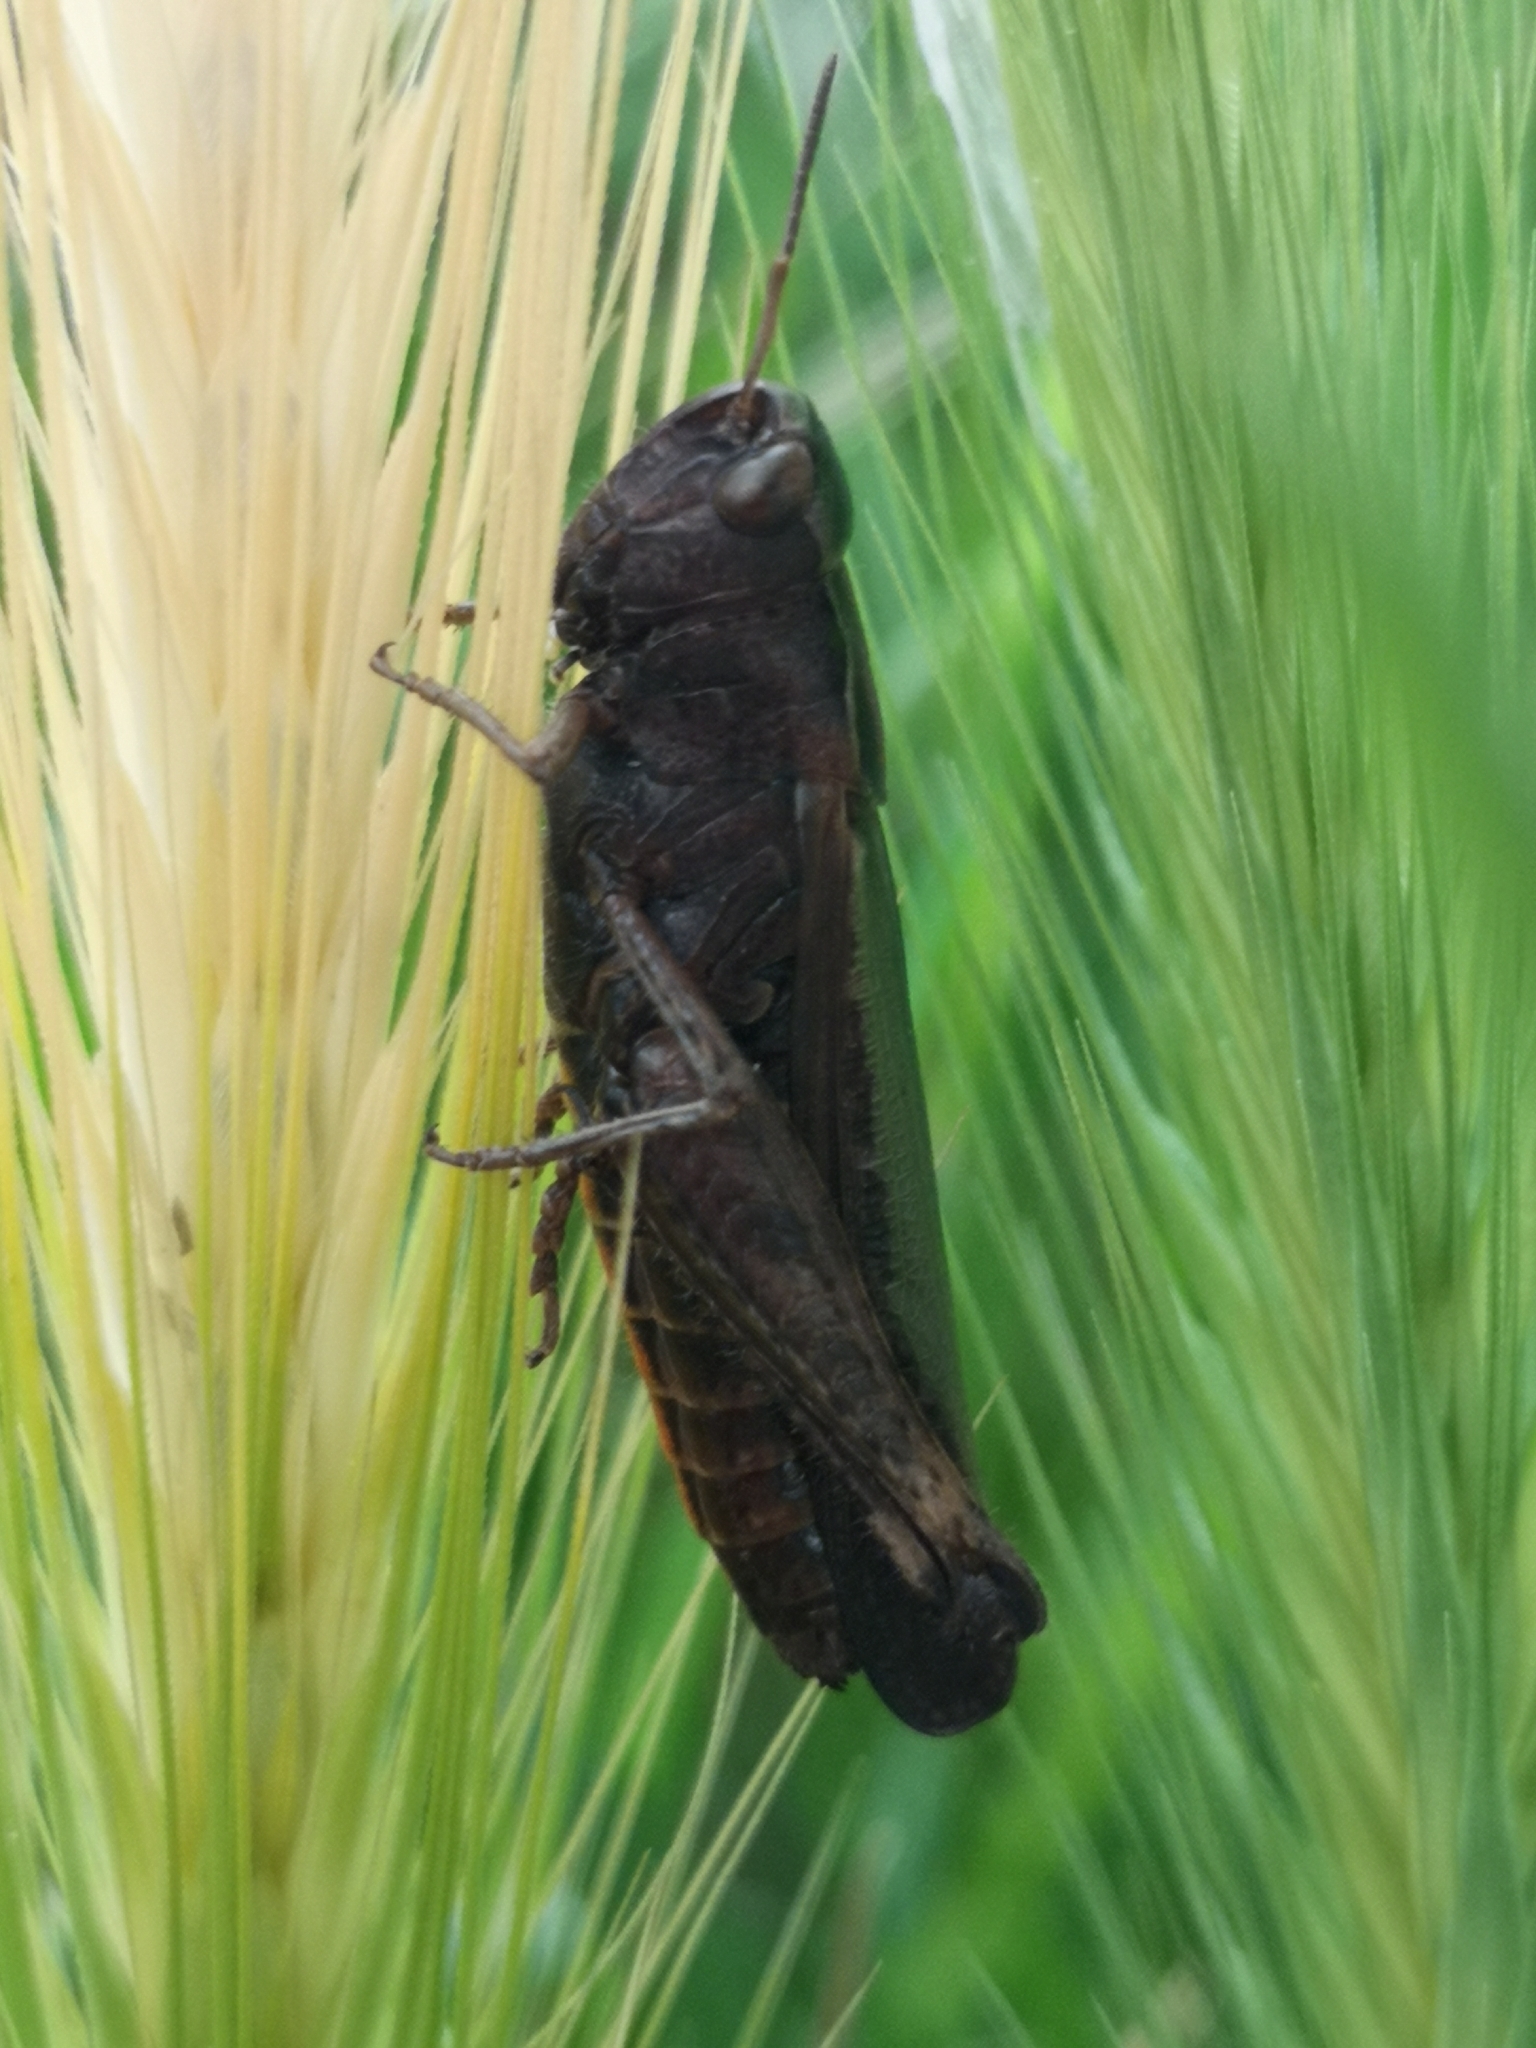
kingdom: Animalia
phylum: Arthropoda
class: Insecta
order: Orthoptera
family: Acrididae
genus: Omocestus
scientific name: Omocestus rufipes
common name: Woodland grasshopper
